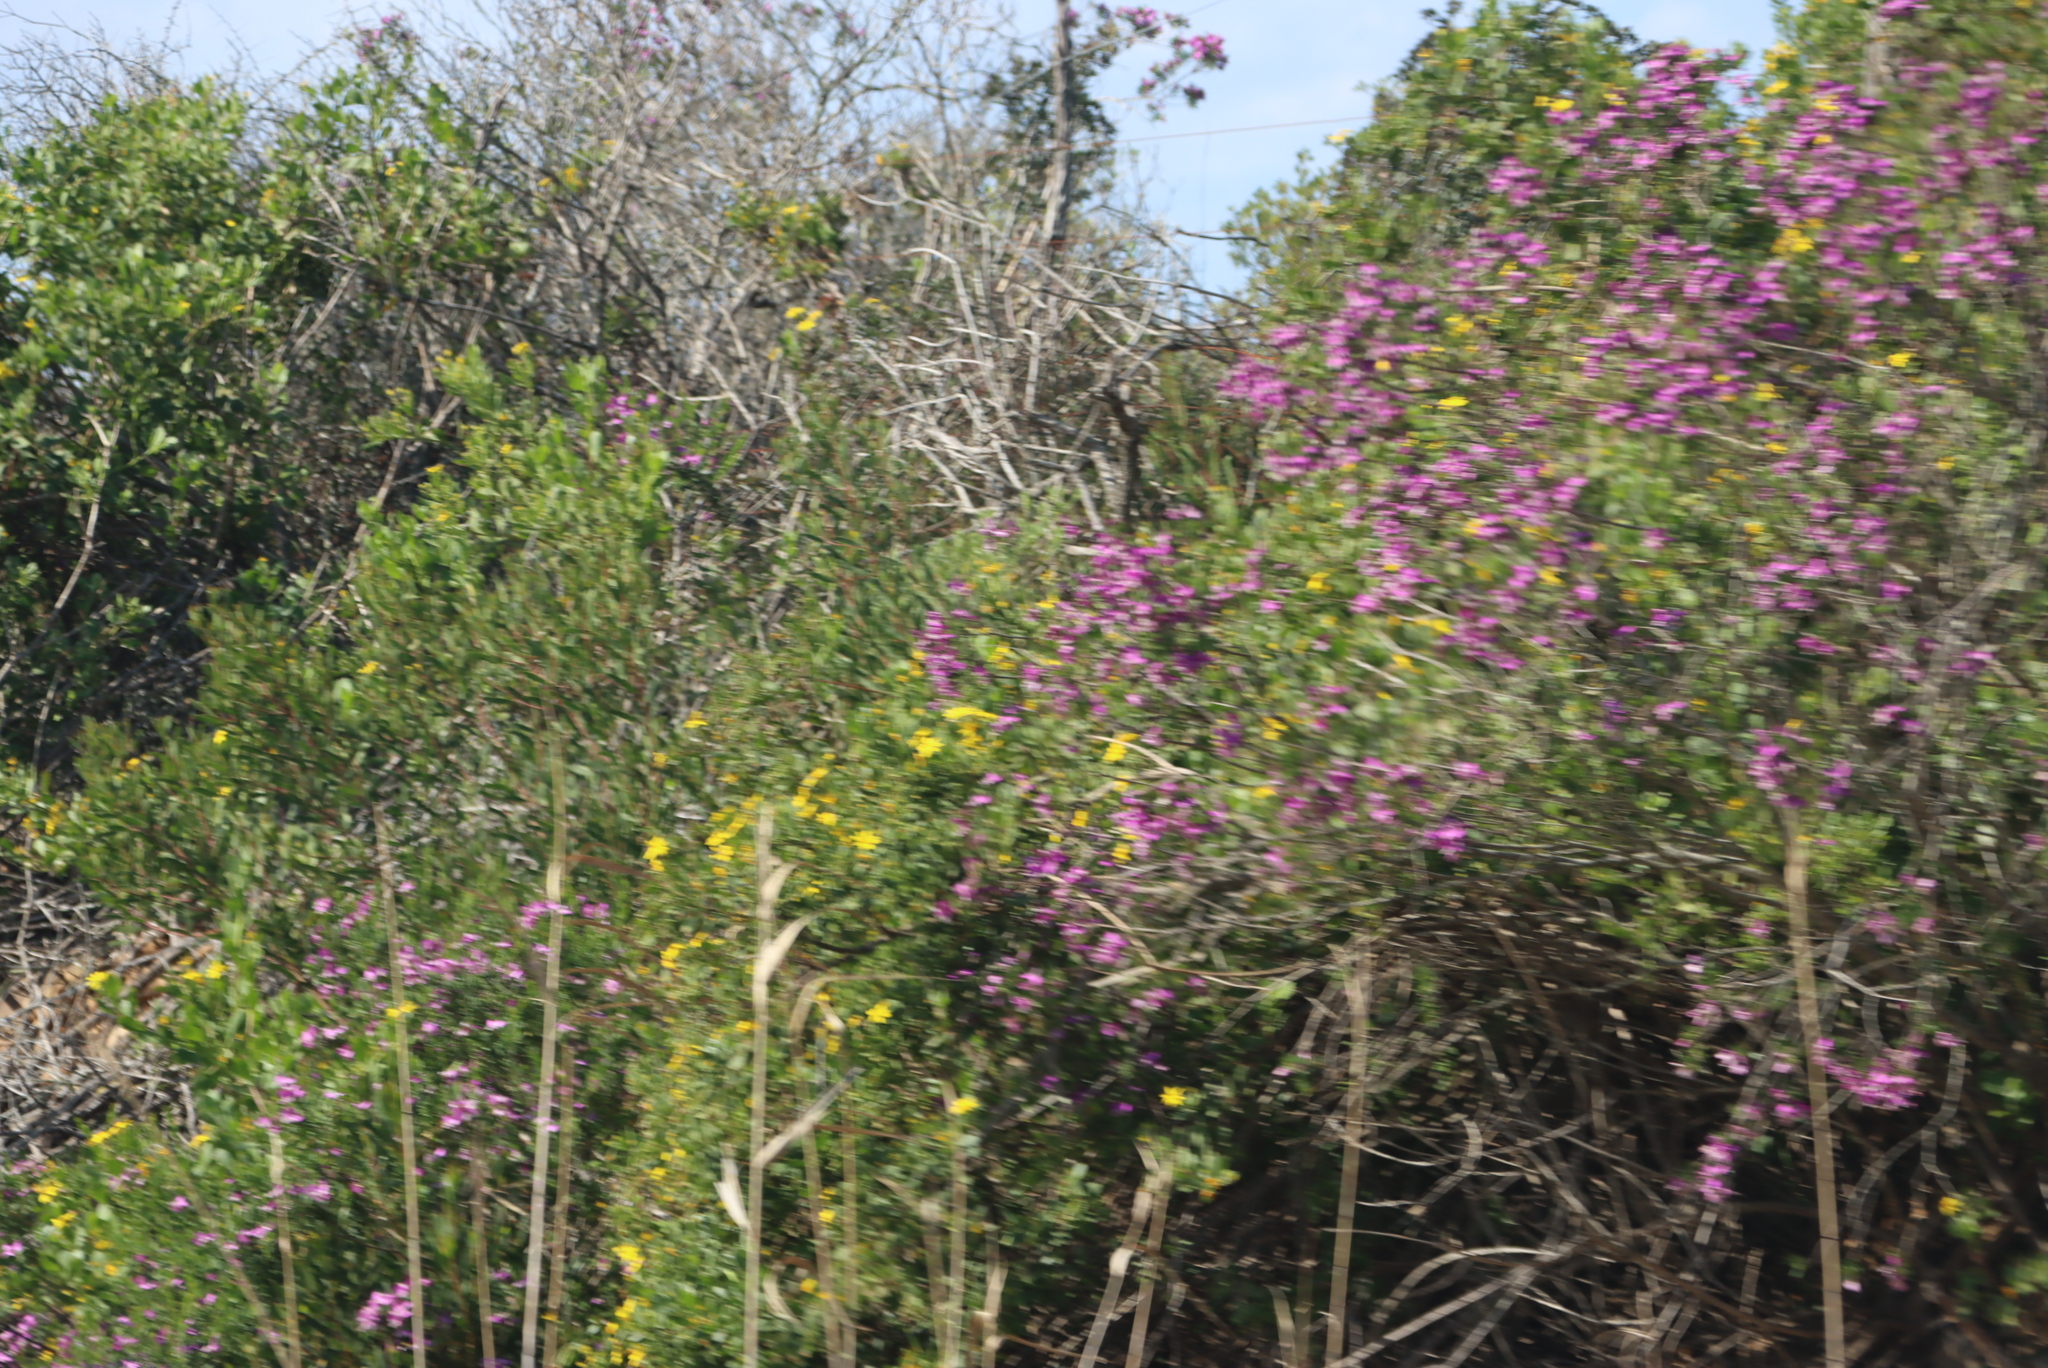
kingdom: Plantae
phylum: Tracheophyta
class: Magnoliopsida
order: Fabales
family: Polygalaceae
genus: Polygala
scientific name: Polygala myrtifolia
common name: Myrtle-leaf milkwort
